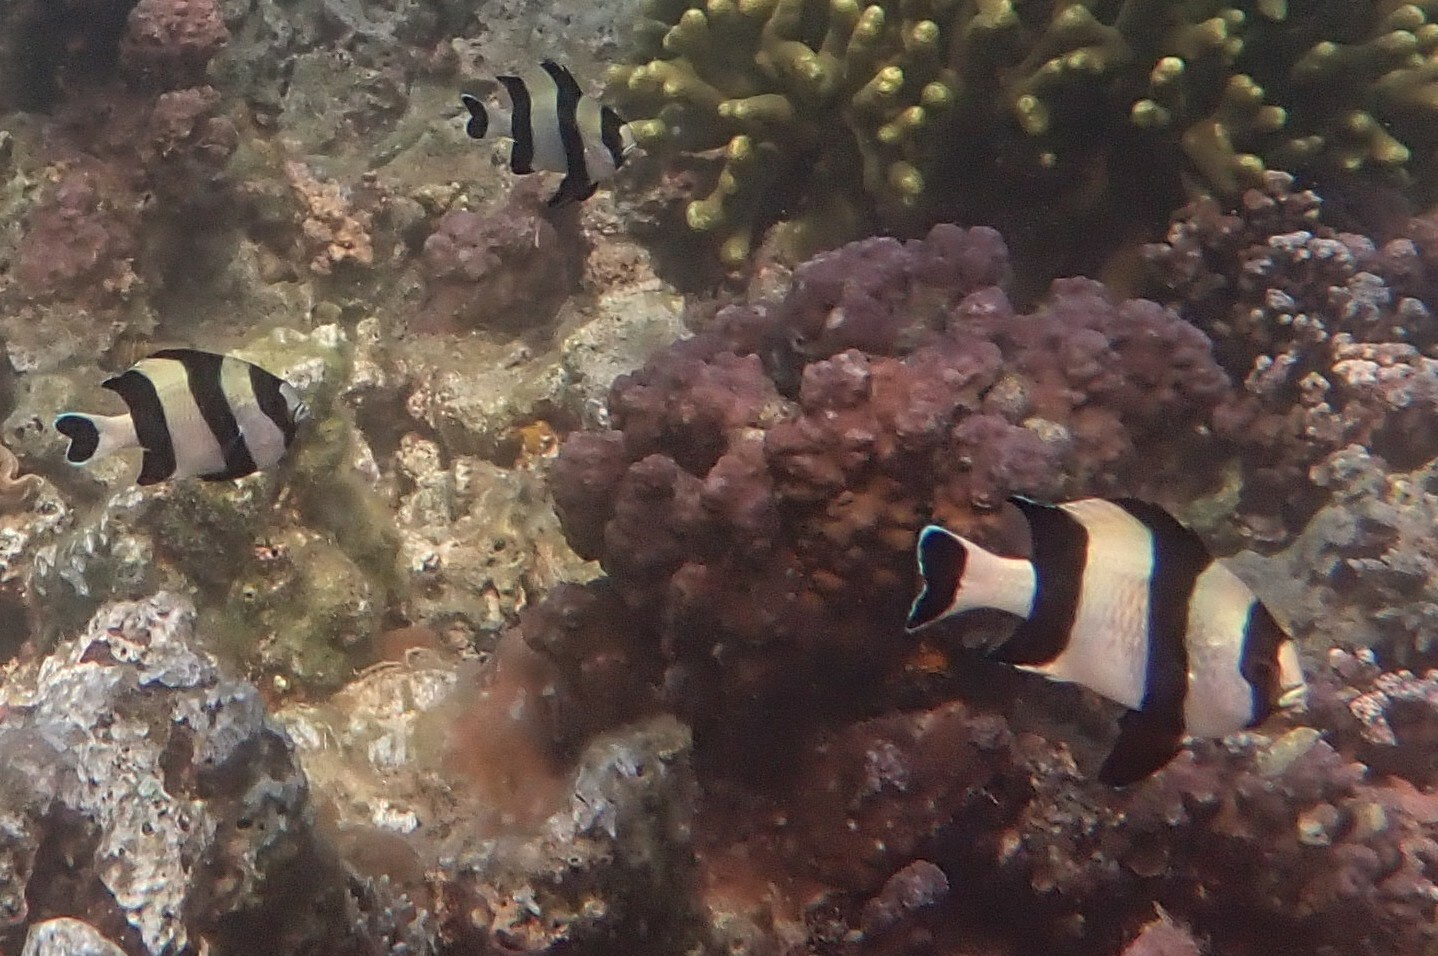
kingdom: Animalia
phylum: Chordata
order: Perciformes
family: Pomacentridae
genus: Dascyllus
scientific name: Dascyllus melanurus
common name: Black-tail dascyllus
